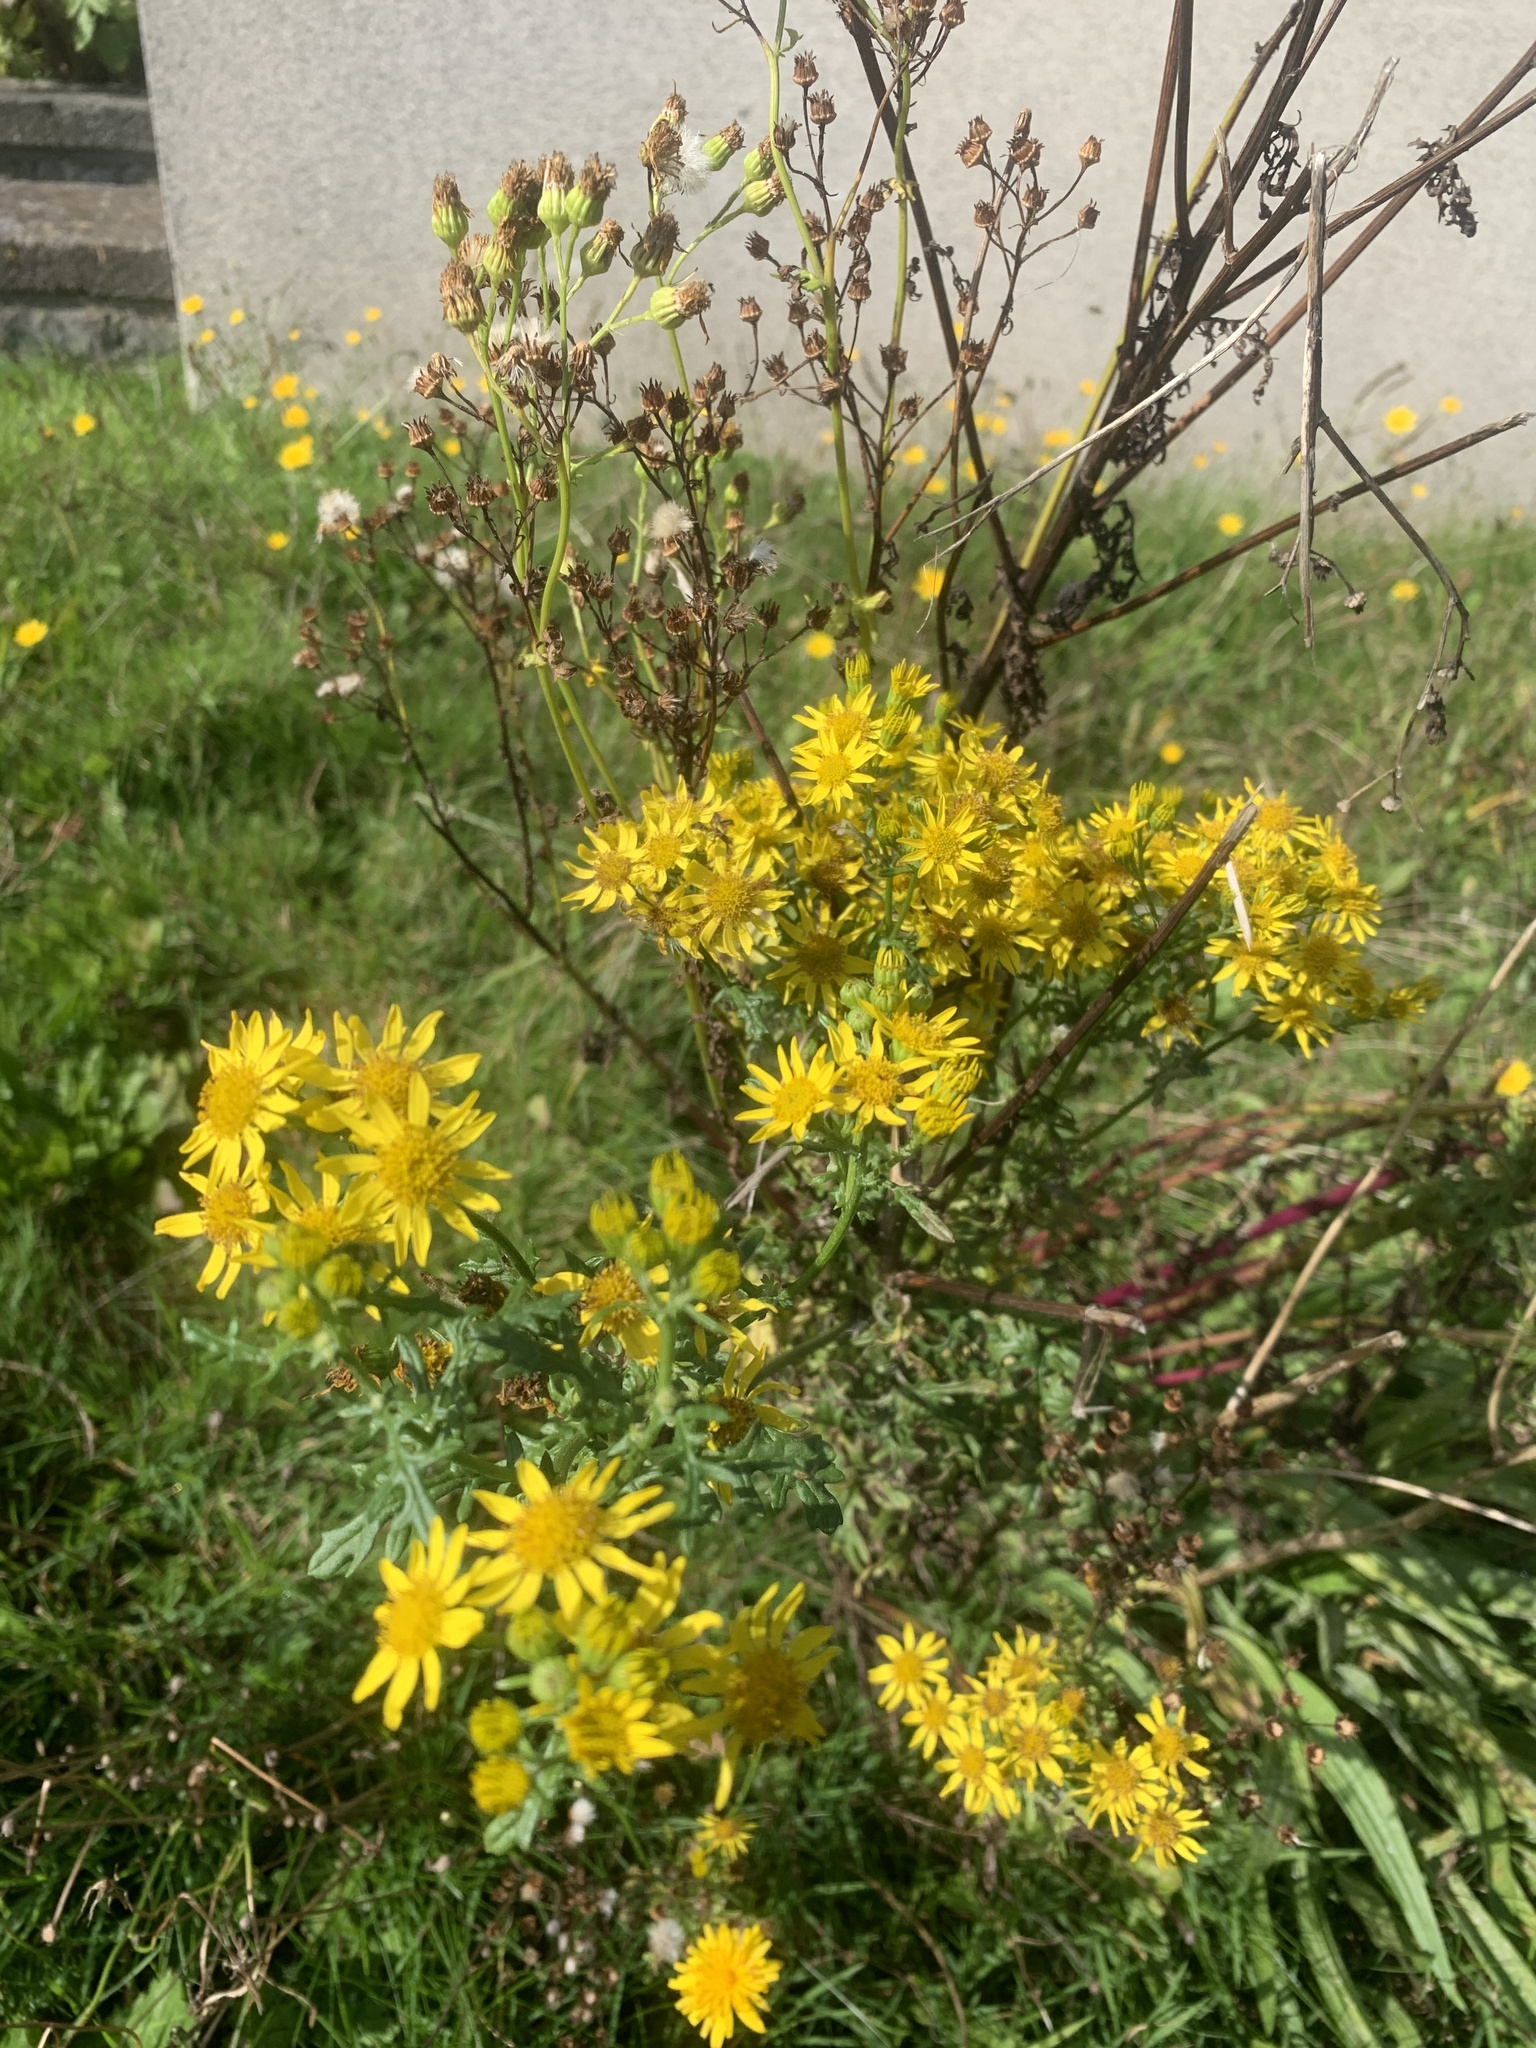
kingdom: Plantae
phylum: Tracheophyta
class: Magnoliopsida
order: Asterales
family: Asteraceae
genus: Jacobaea
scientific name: Jacobaea vulgaris
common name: Stinking willie
